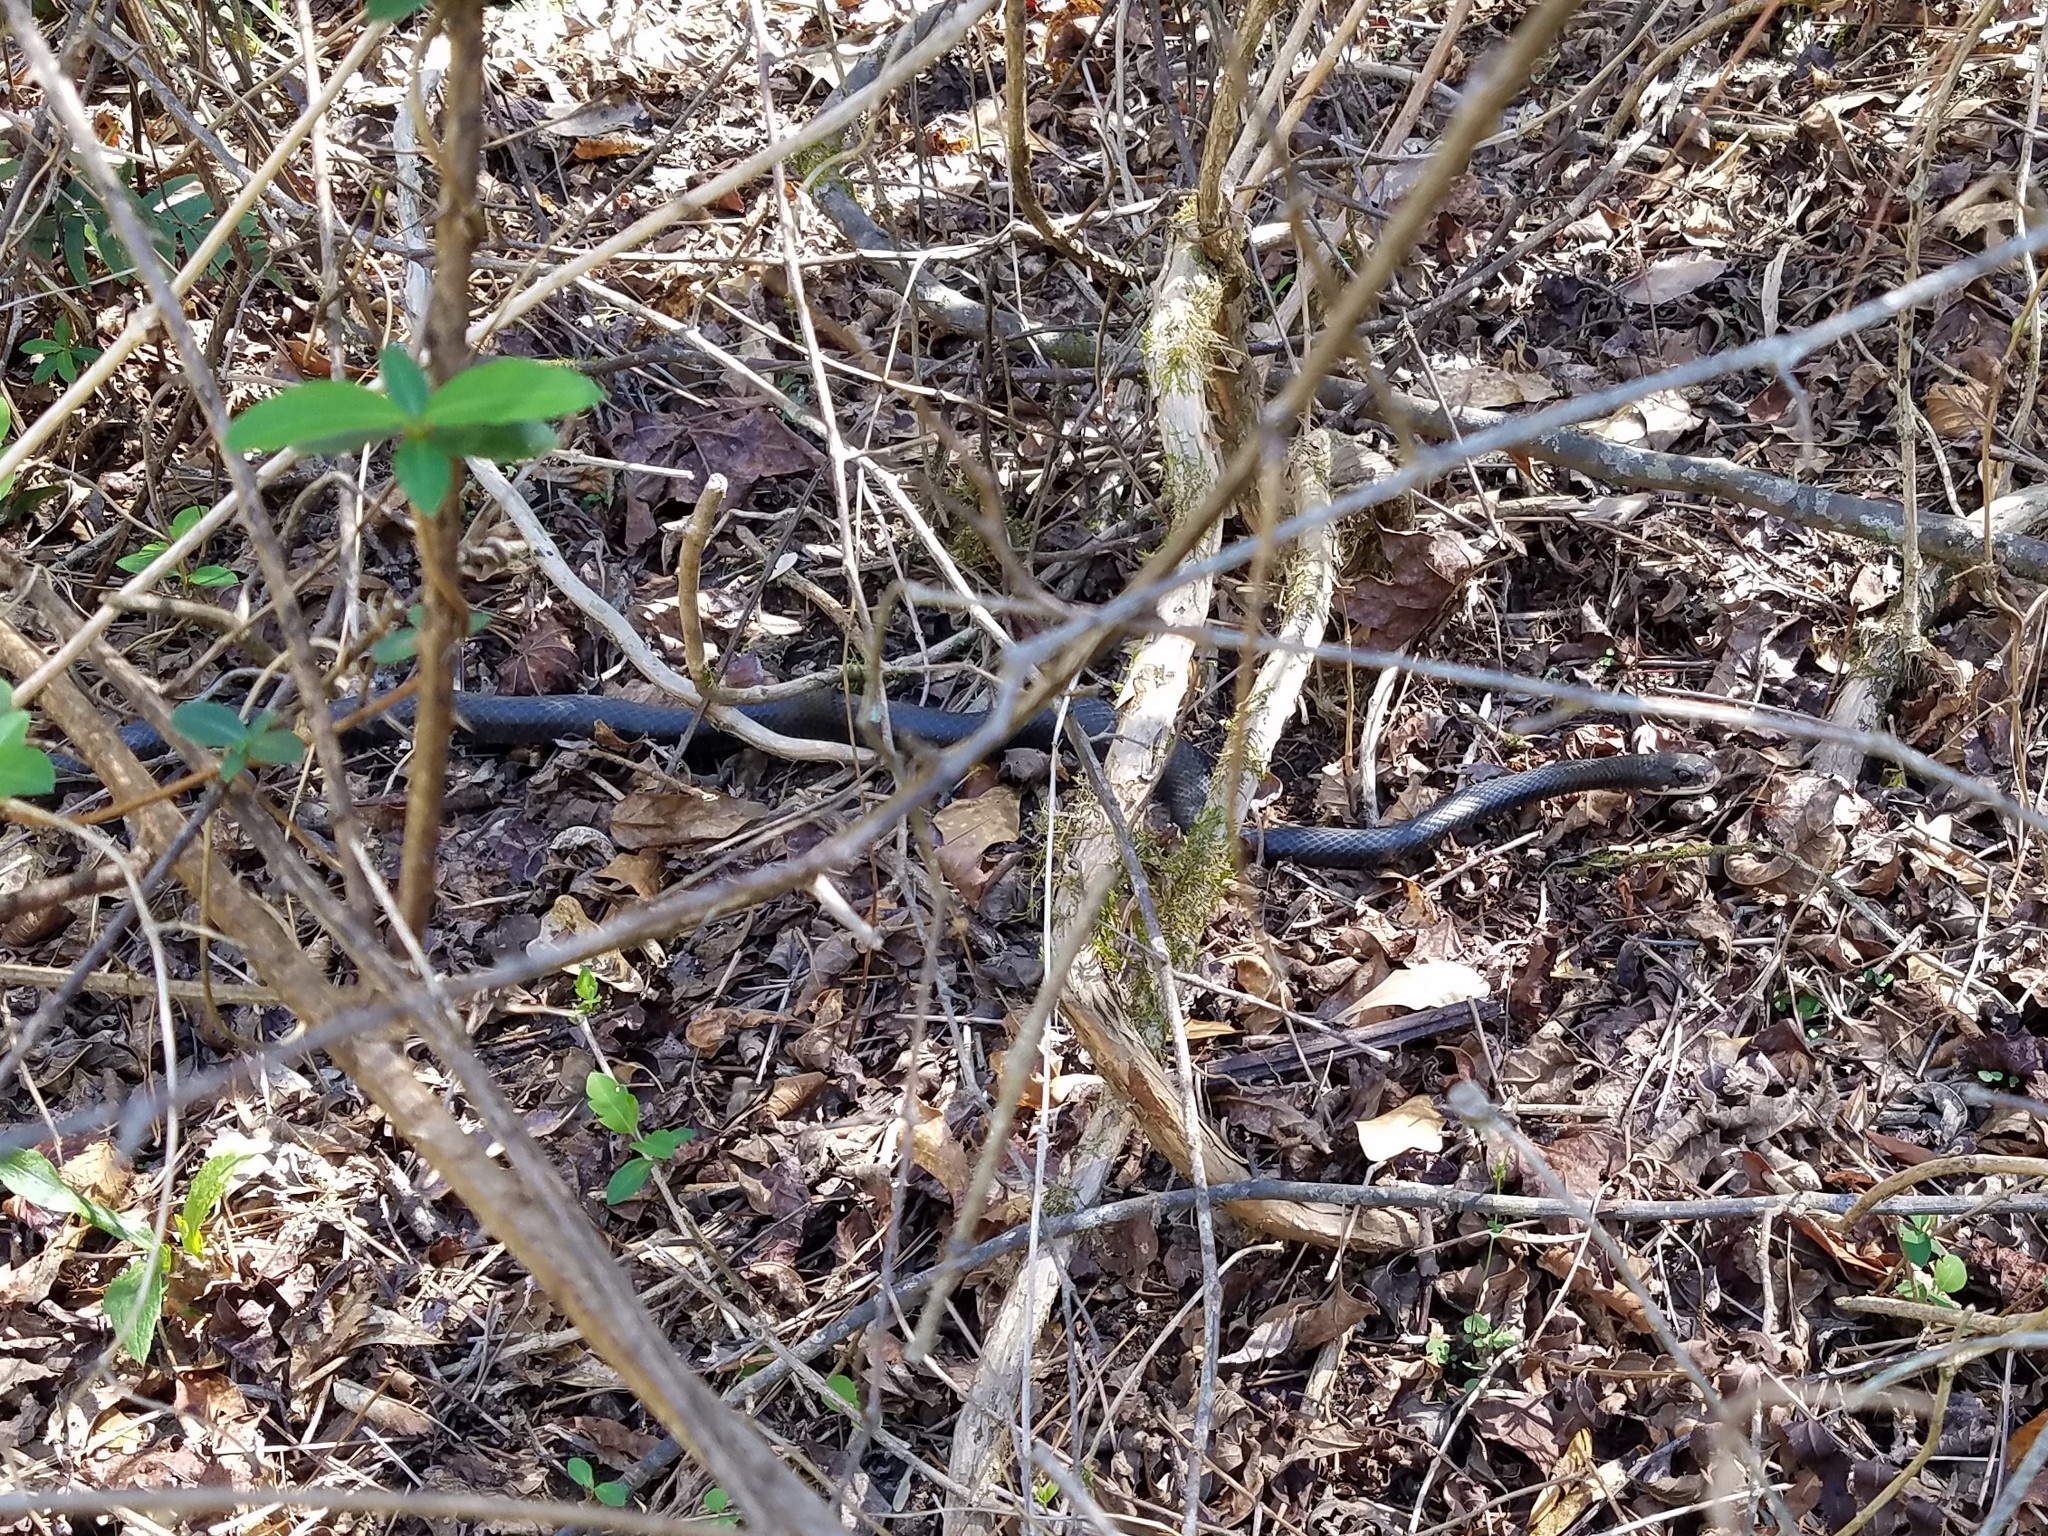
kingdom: Animalia
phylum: Chordata
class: Squamata
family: Colubridae
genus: Coluber
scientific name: Coluber constrictor
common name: Eastern racer
